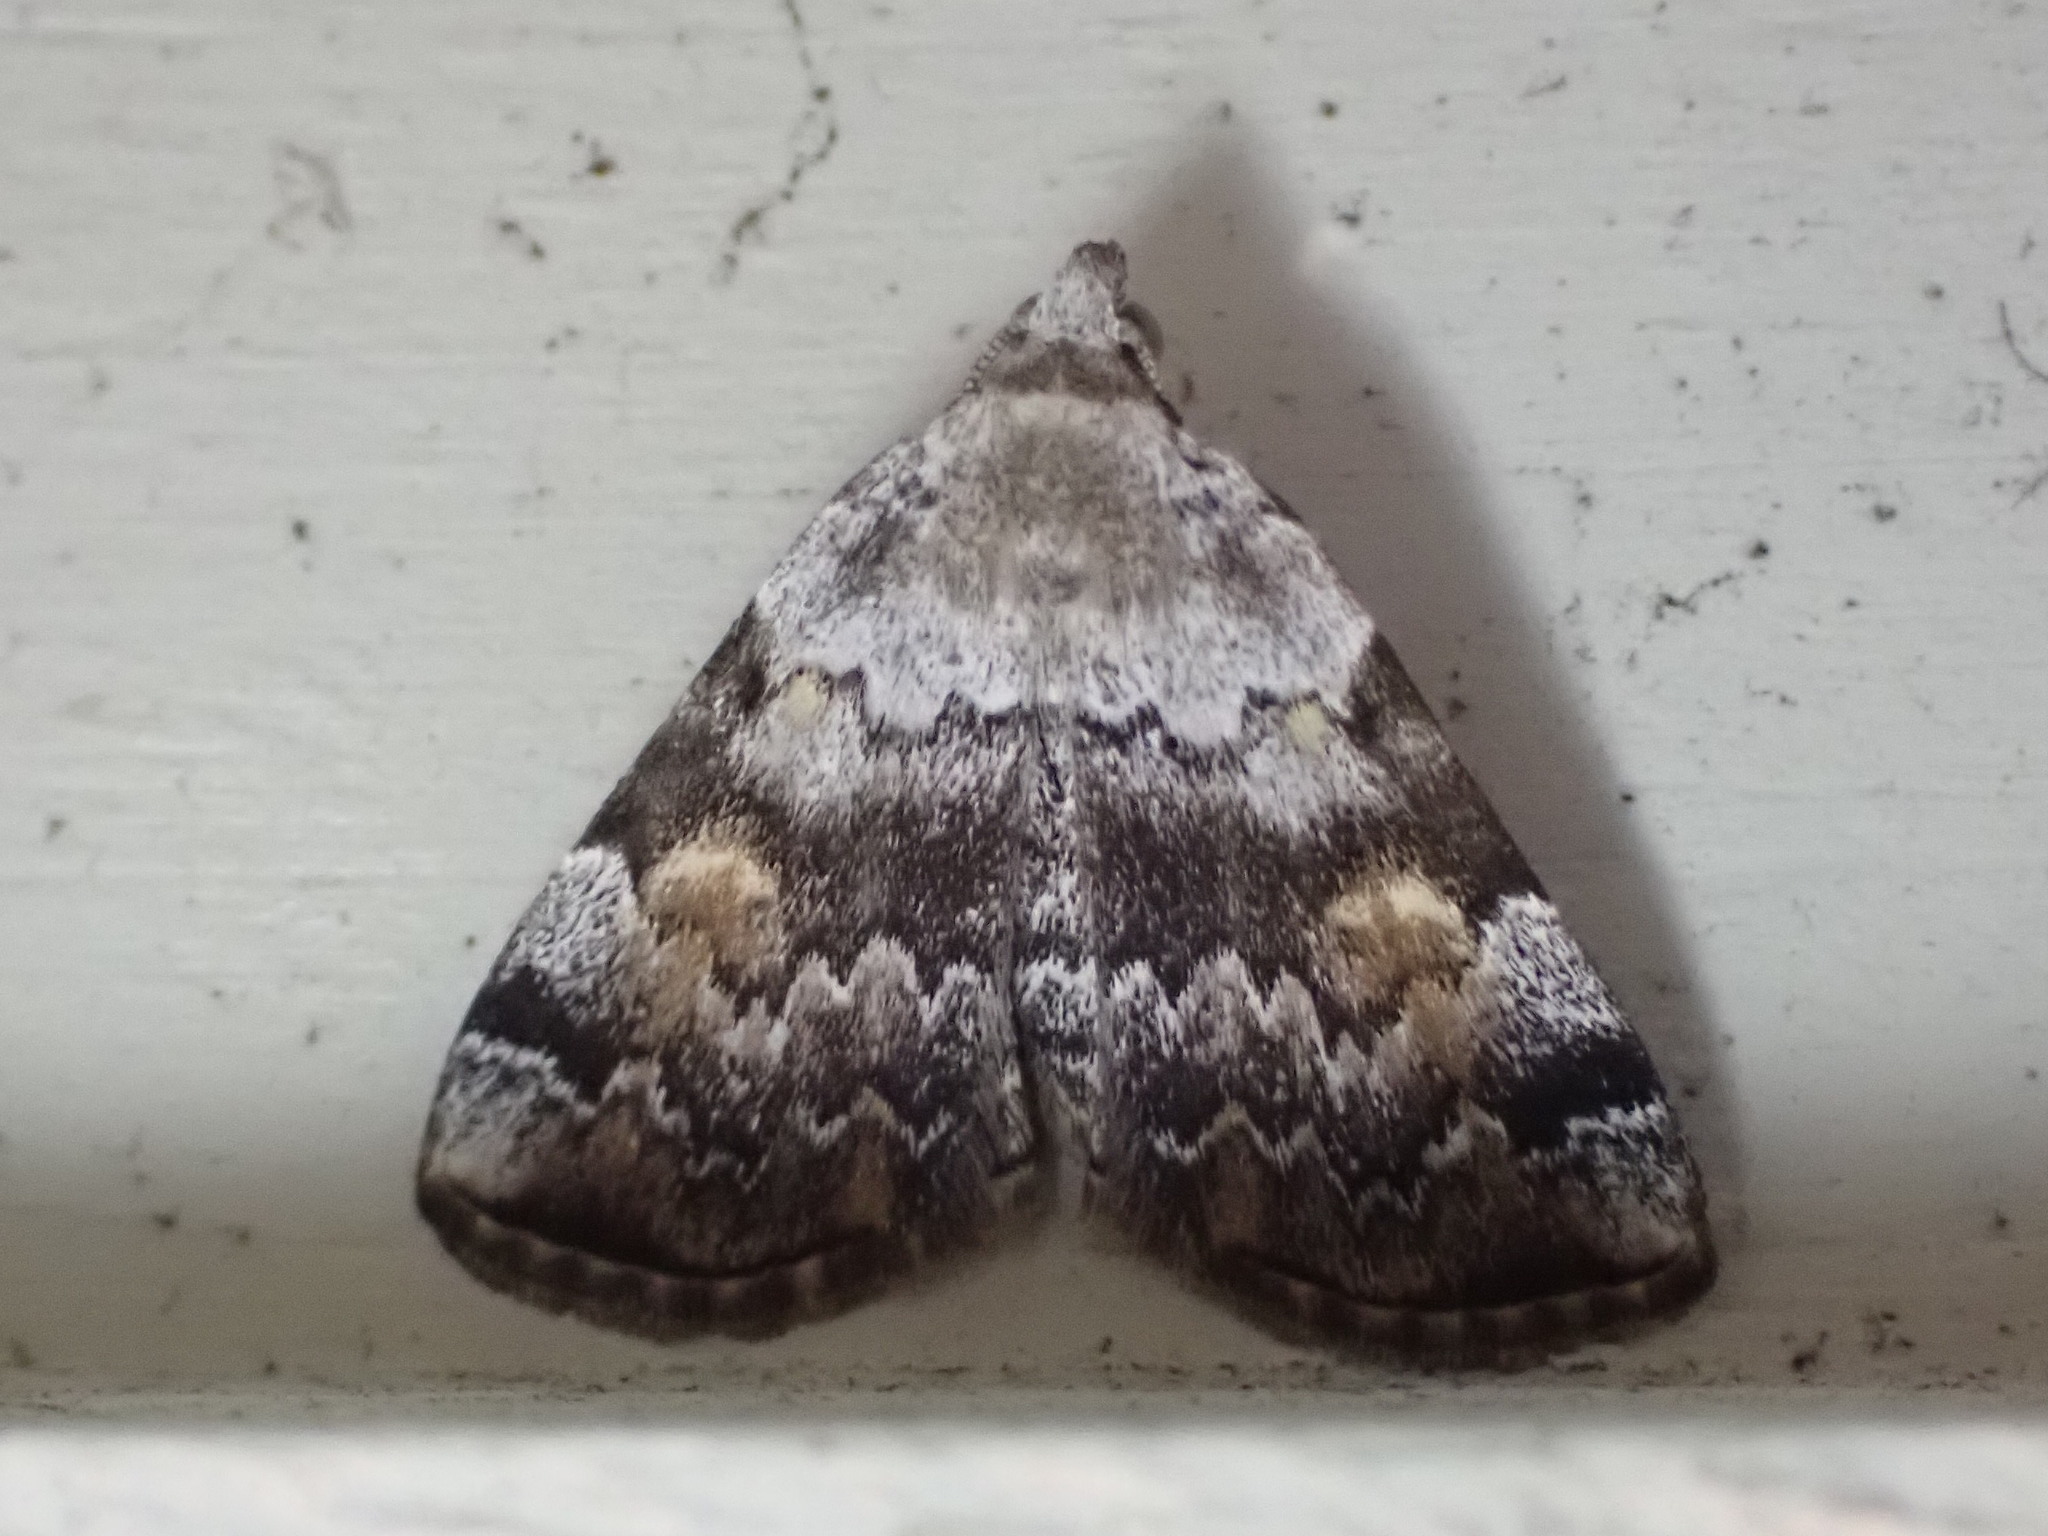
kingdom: Animalia
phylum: Arthropoda
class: Insecta
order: Lepidoptera
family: Erebidae
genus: Idia
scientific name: Idia americalis
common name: American idia moth
